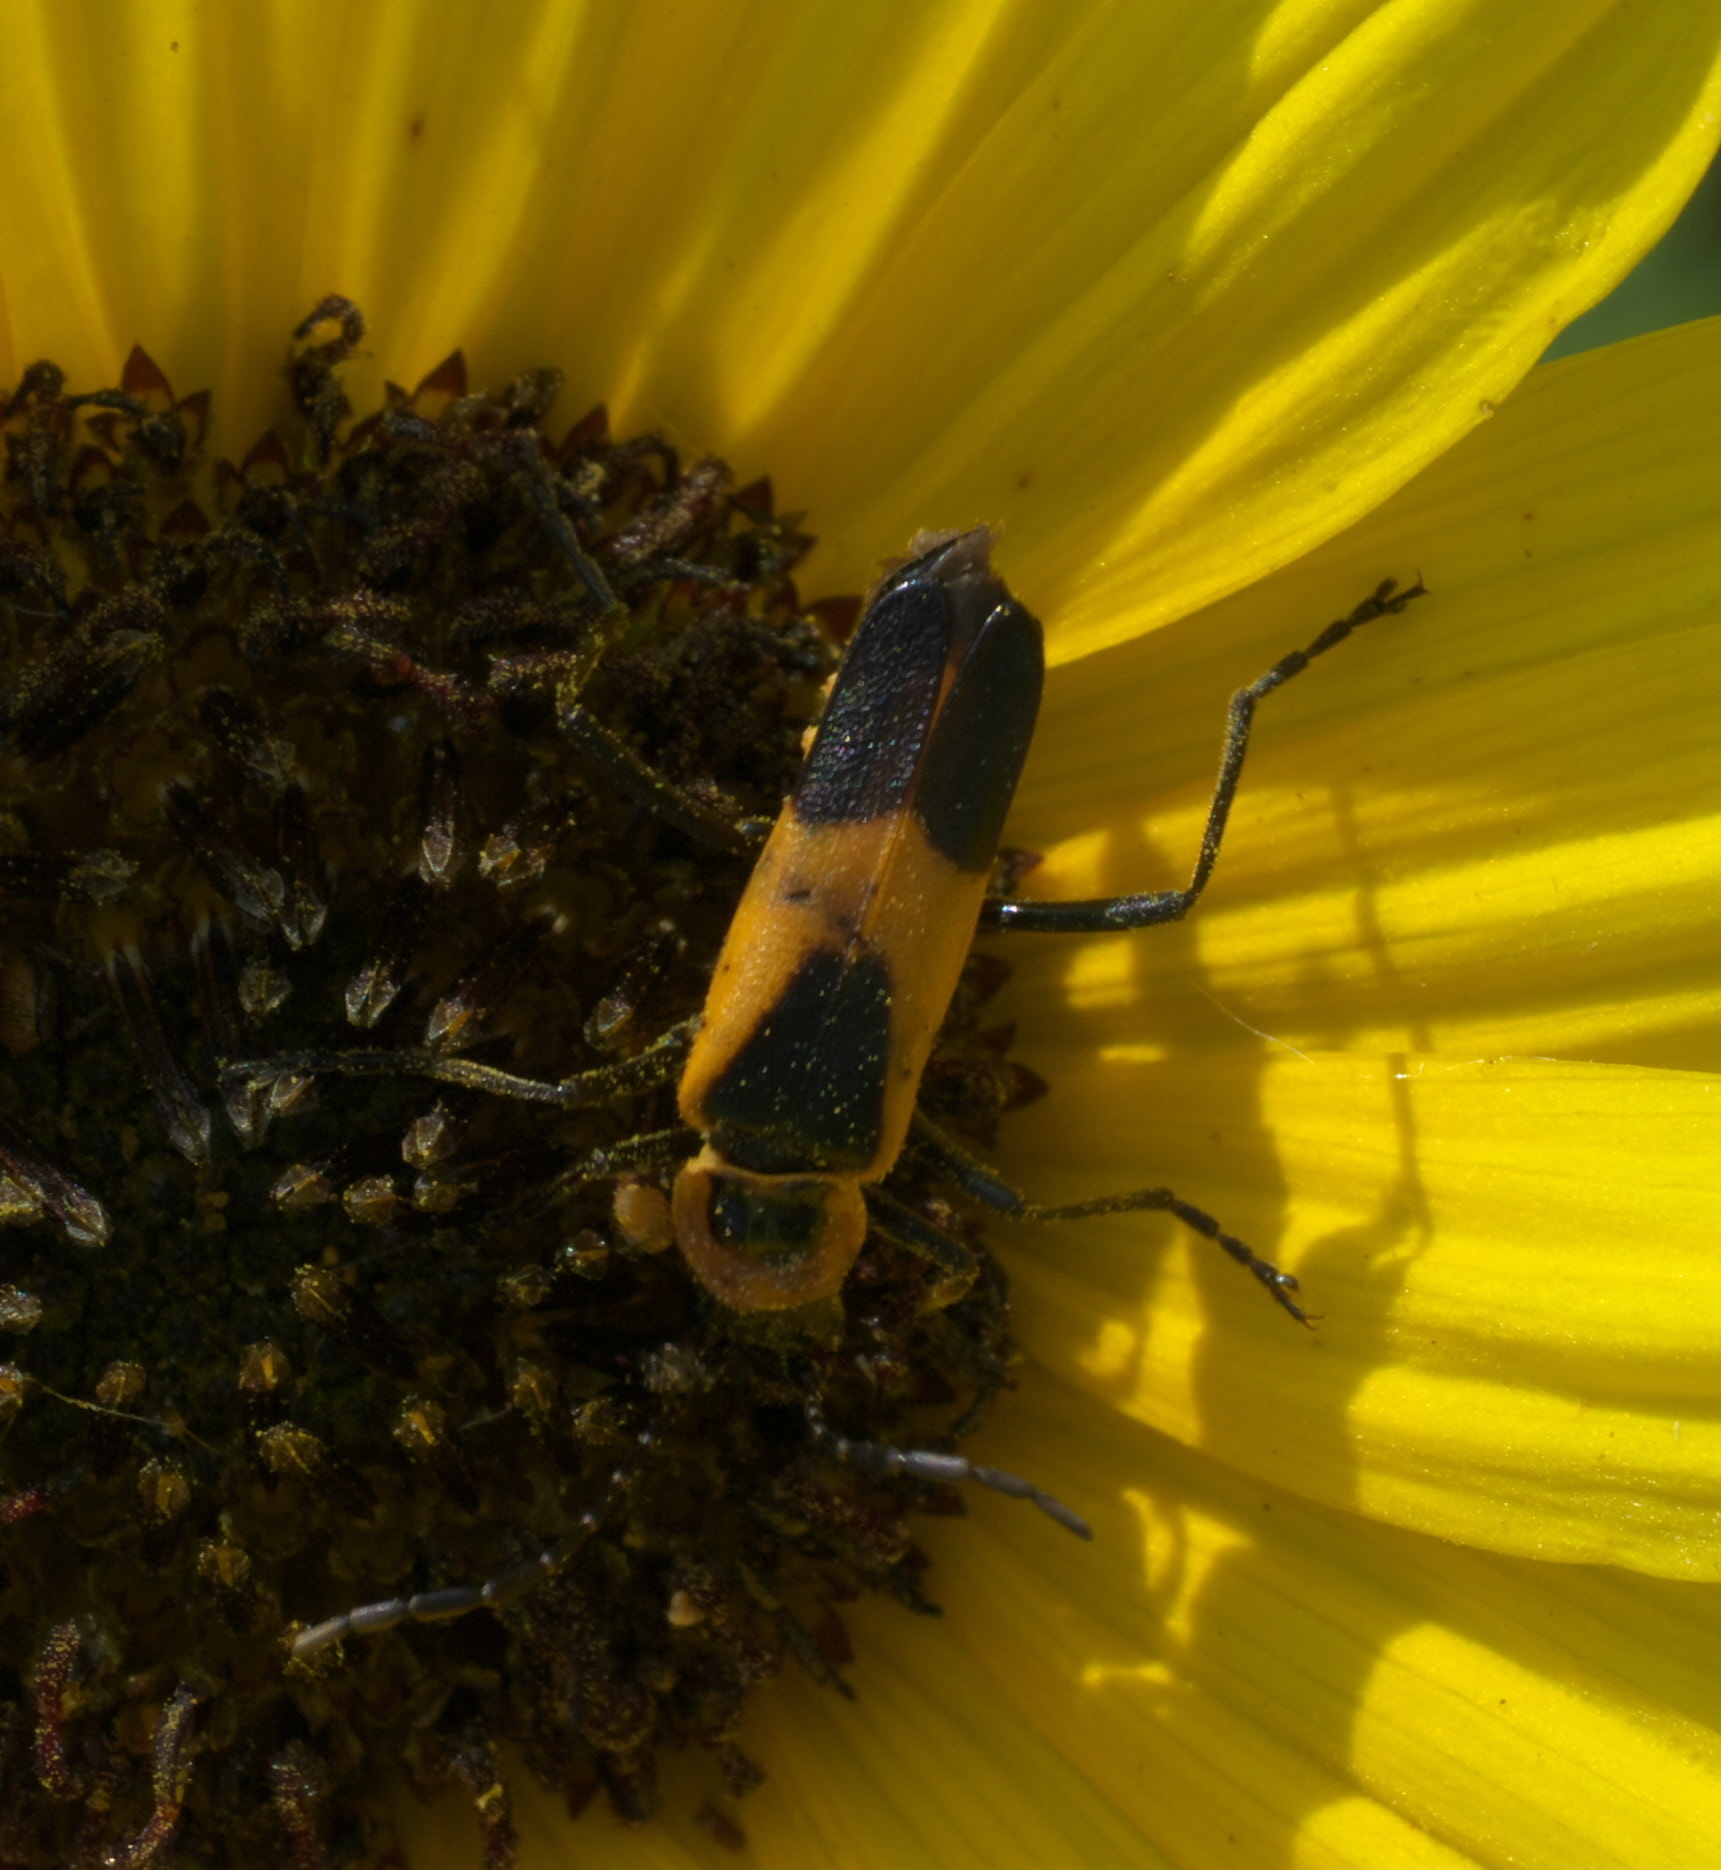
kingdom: Animalia
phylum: Arthropoda
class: Insecta
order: Coleoptera
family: Cantharidae
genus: Chauliognathus
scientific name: Chauliognathus basalis
